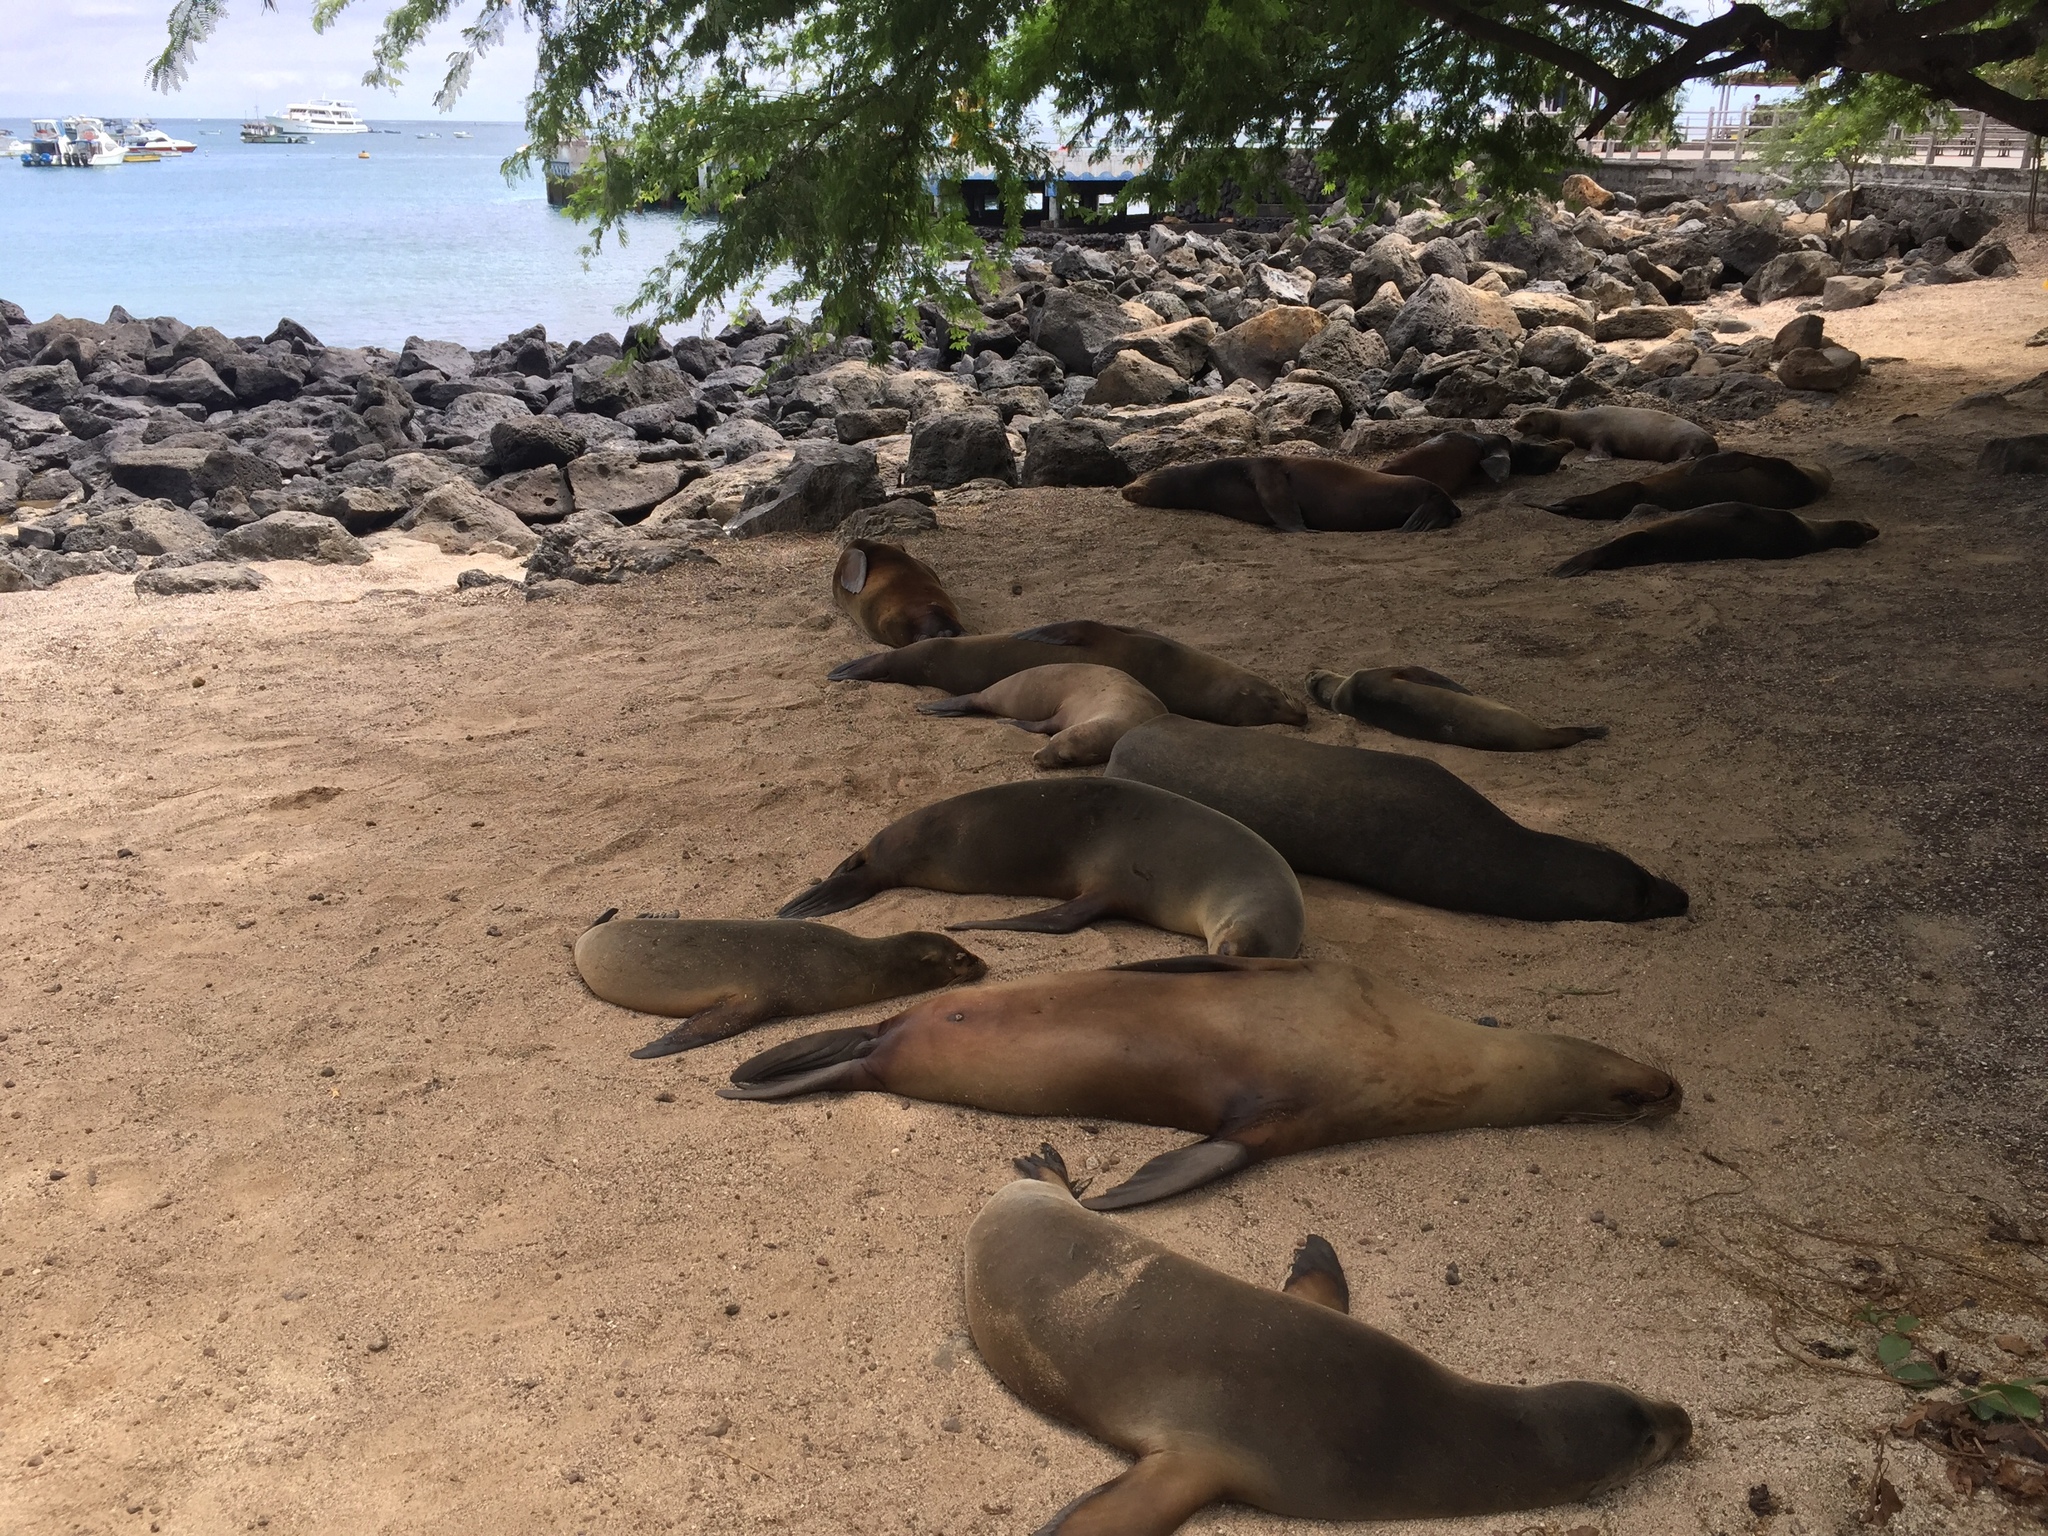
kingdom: Animalia
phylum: Chordata
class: Mammalia
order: Carnivora
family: Otariidae
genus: Zalophus
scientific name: Zalophus wollebaeki
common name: Galapagos sea lion
